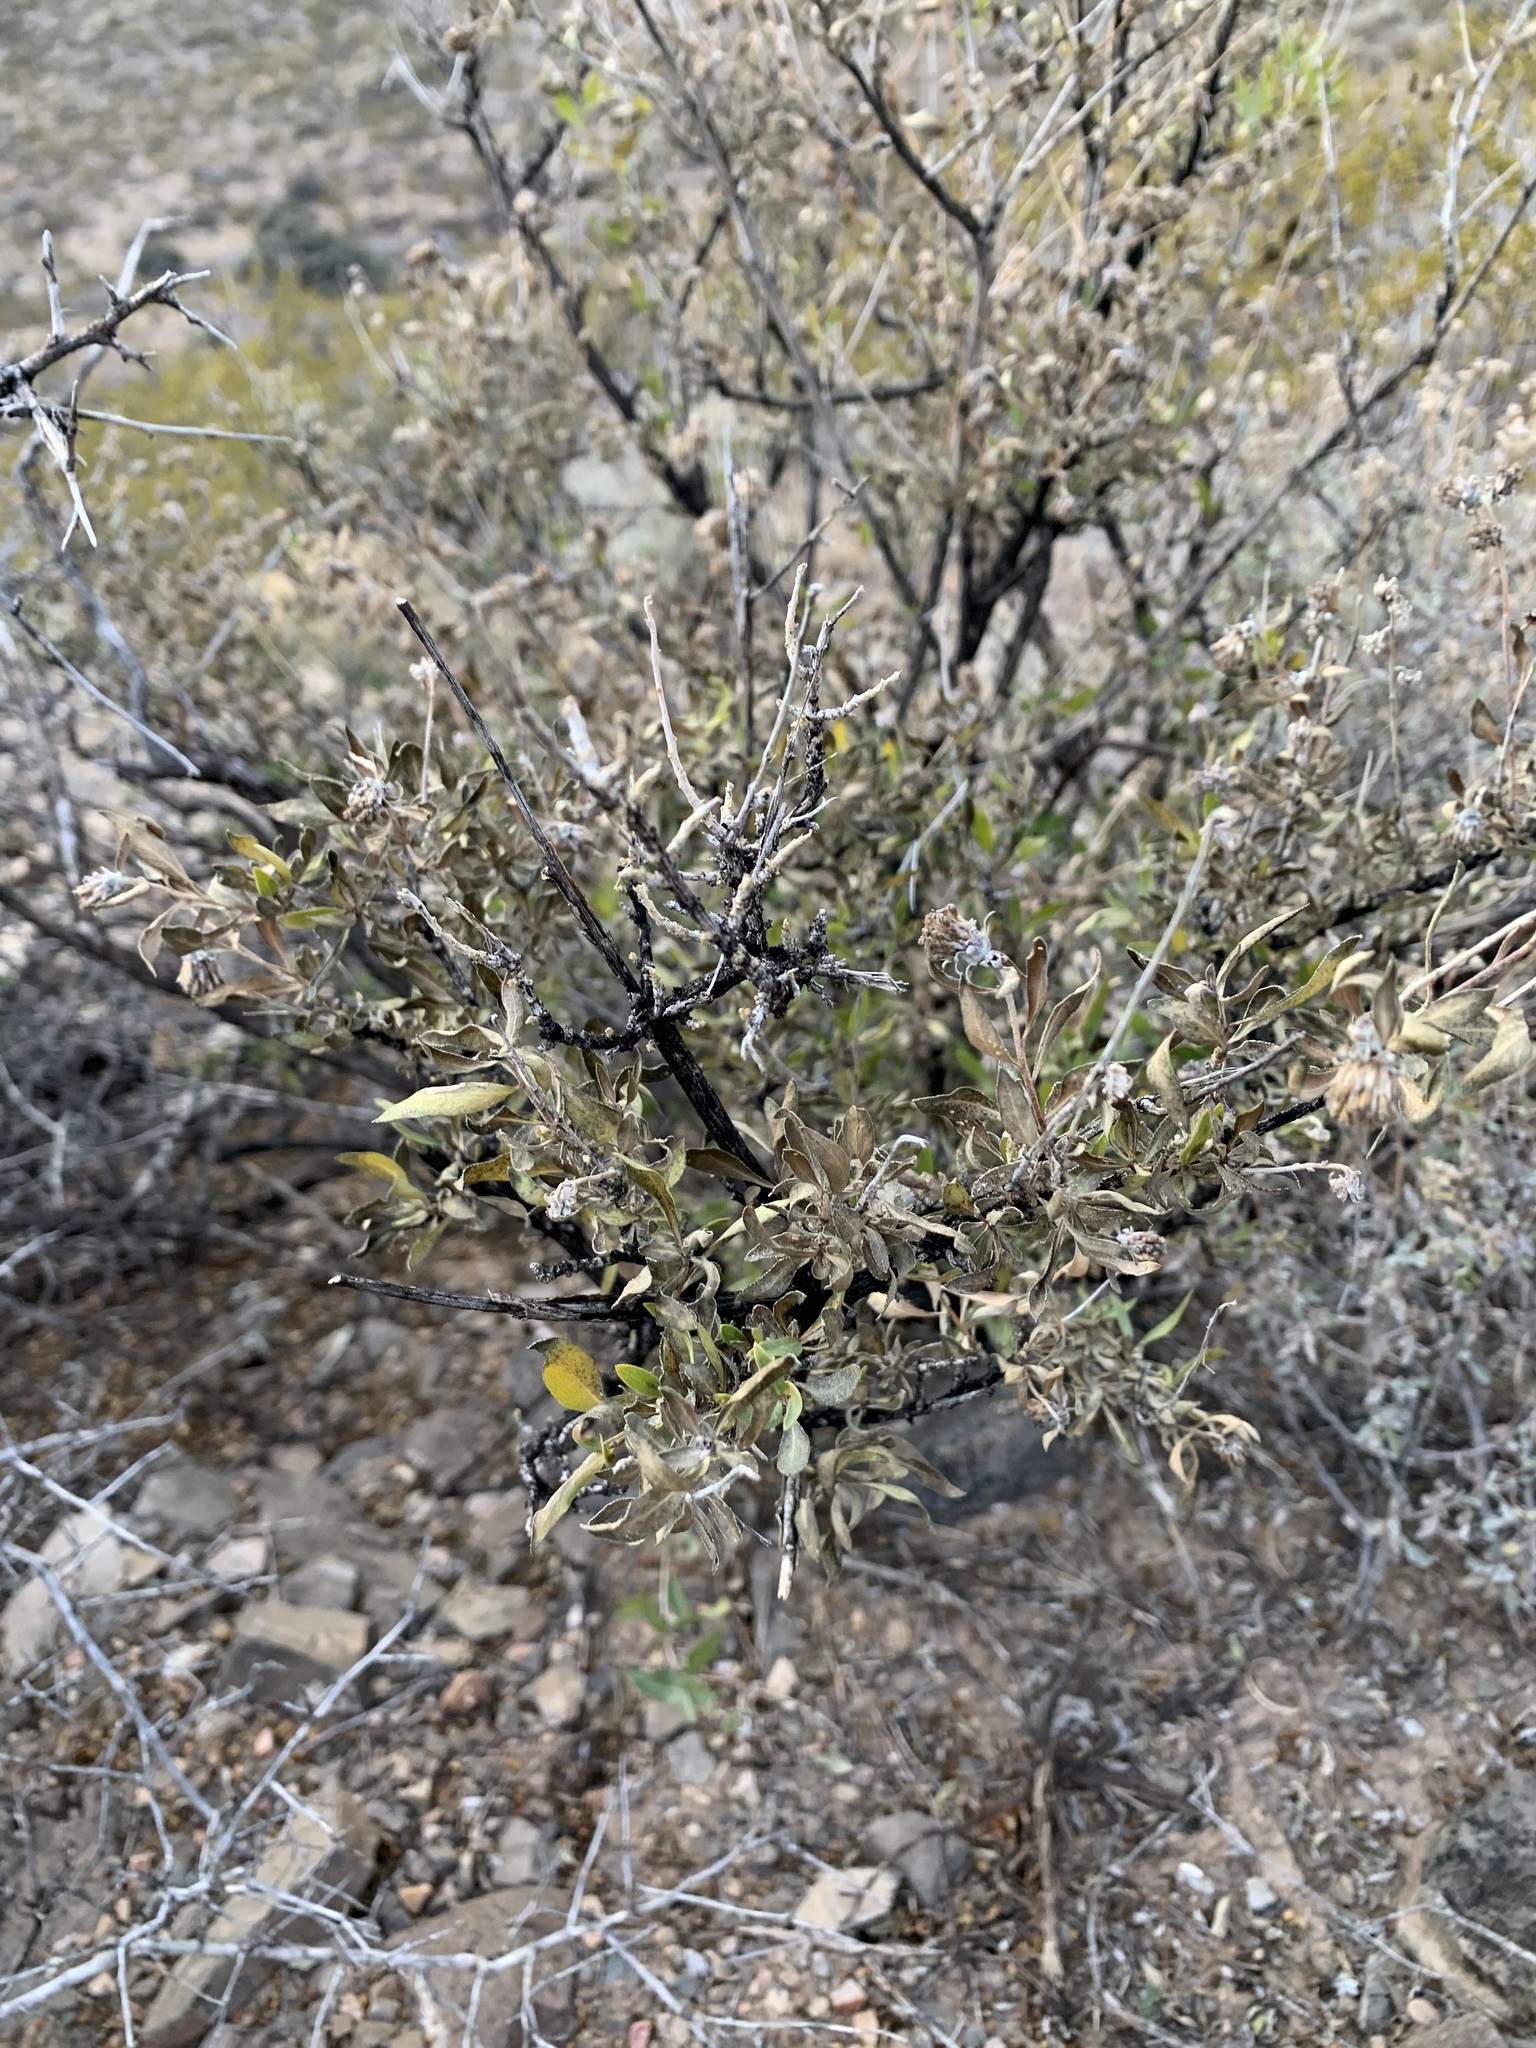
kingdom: Plantae
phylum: Tracheophyta
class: Magnoliopsida
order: Asterales
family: Asteraceae
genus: Flourensia
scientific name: Flourensia cernua
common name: Varnishbush
